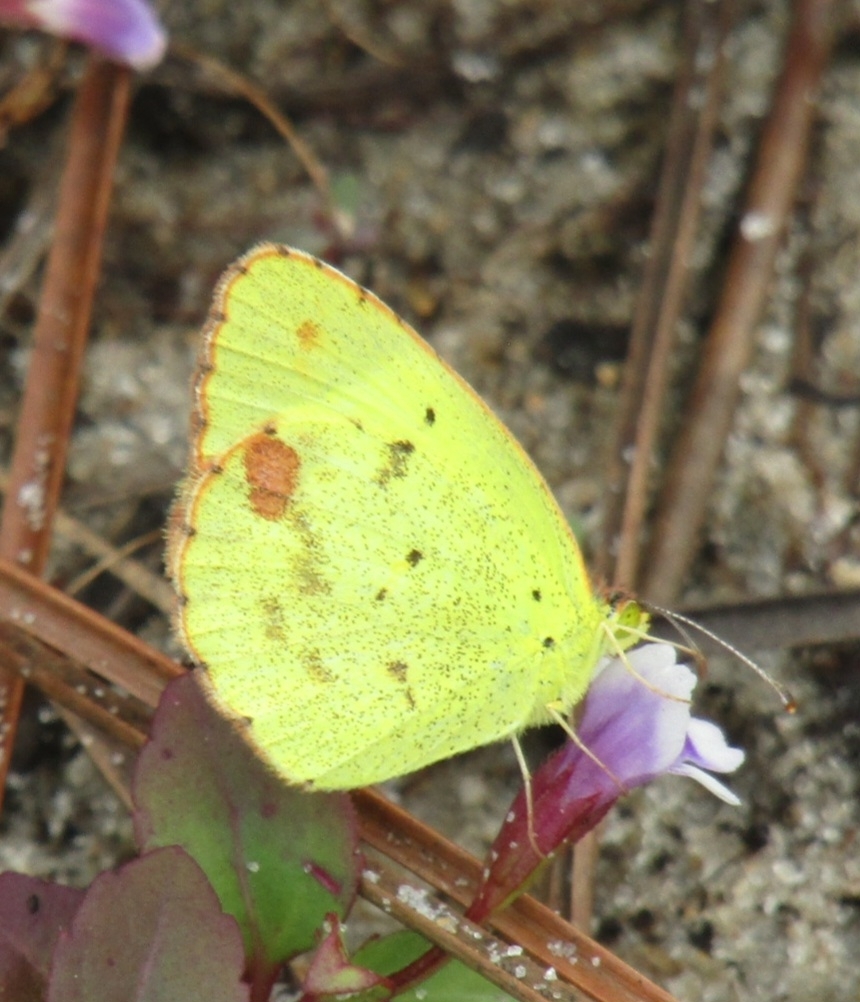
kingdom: Animalia
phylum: Arthropoda
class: Insecta
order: Lepidoptera
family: Pieridae
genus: Pyrisitia
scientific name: Pyrisitia lisa
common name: Little yellow
